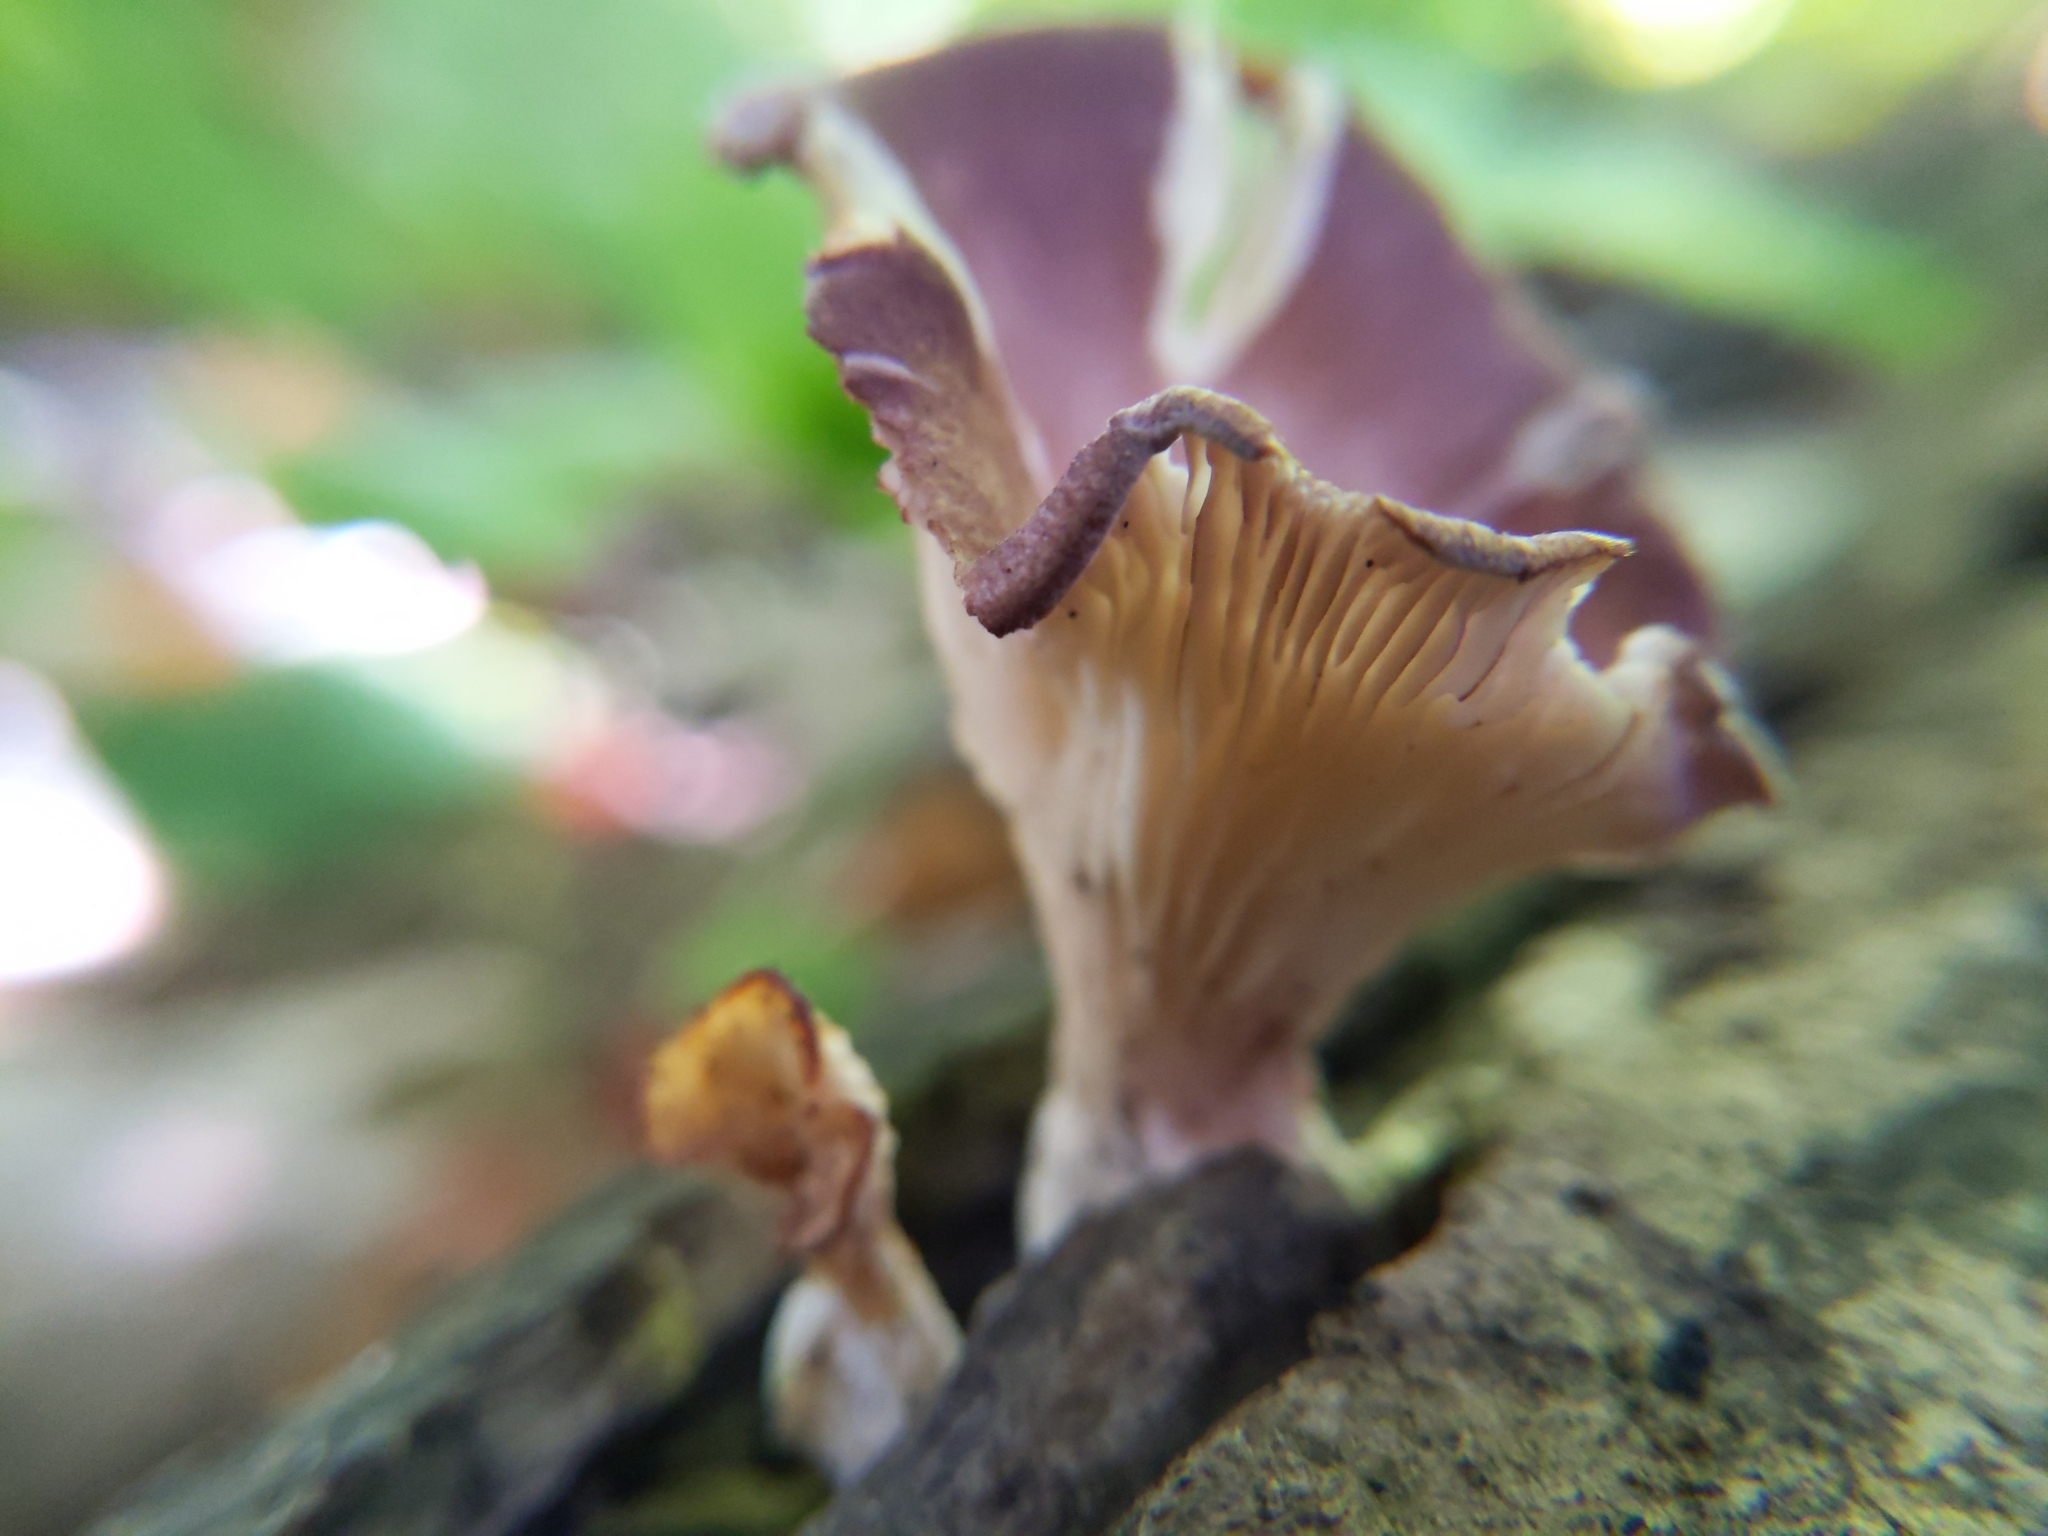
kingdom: Fungi
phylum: Basidiomycota
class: Agaricomycetes
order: Polyporales
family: Panaceae
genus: Panus
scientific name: Panus conchatus
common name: Lilac oysterling
